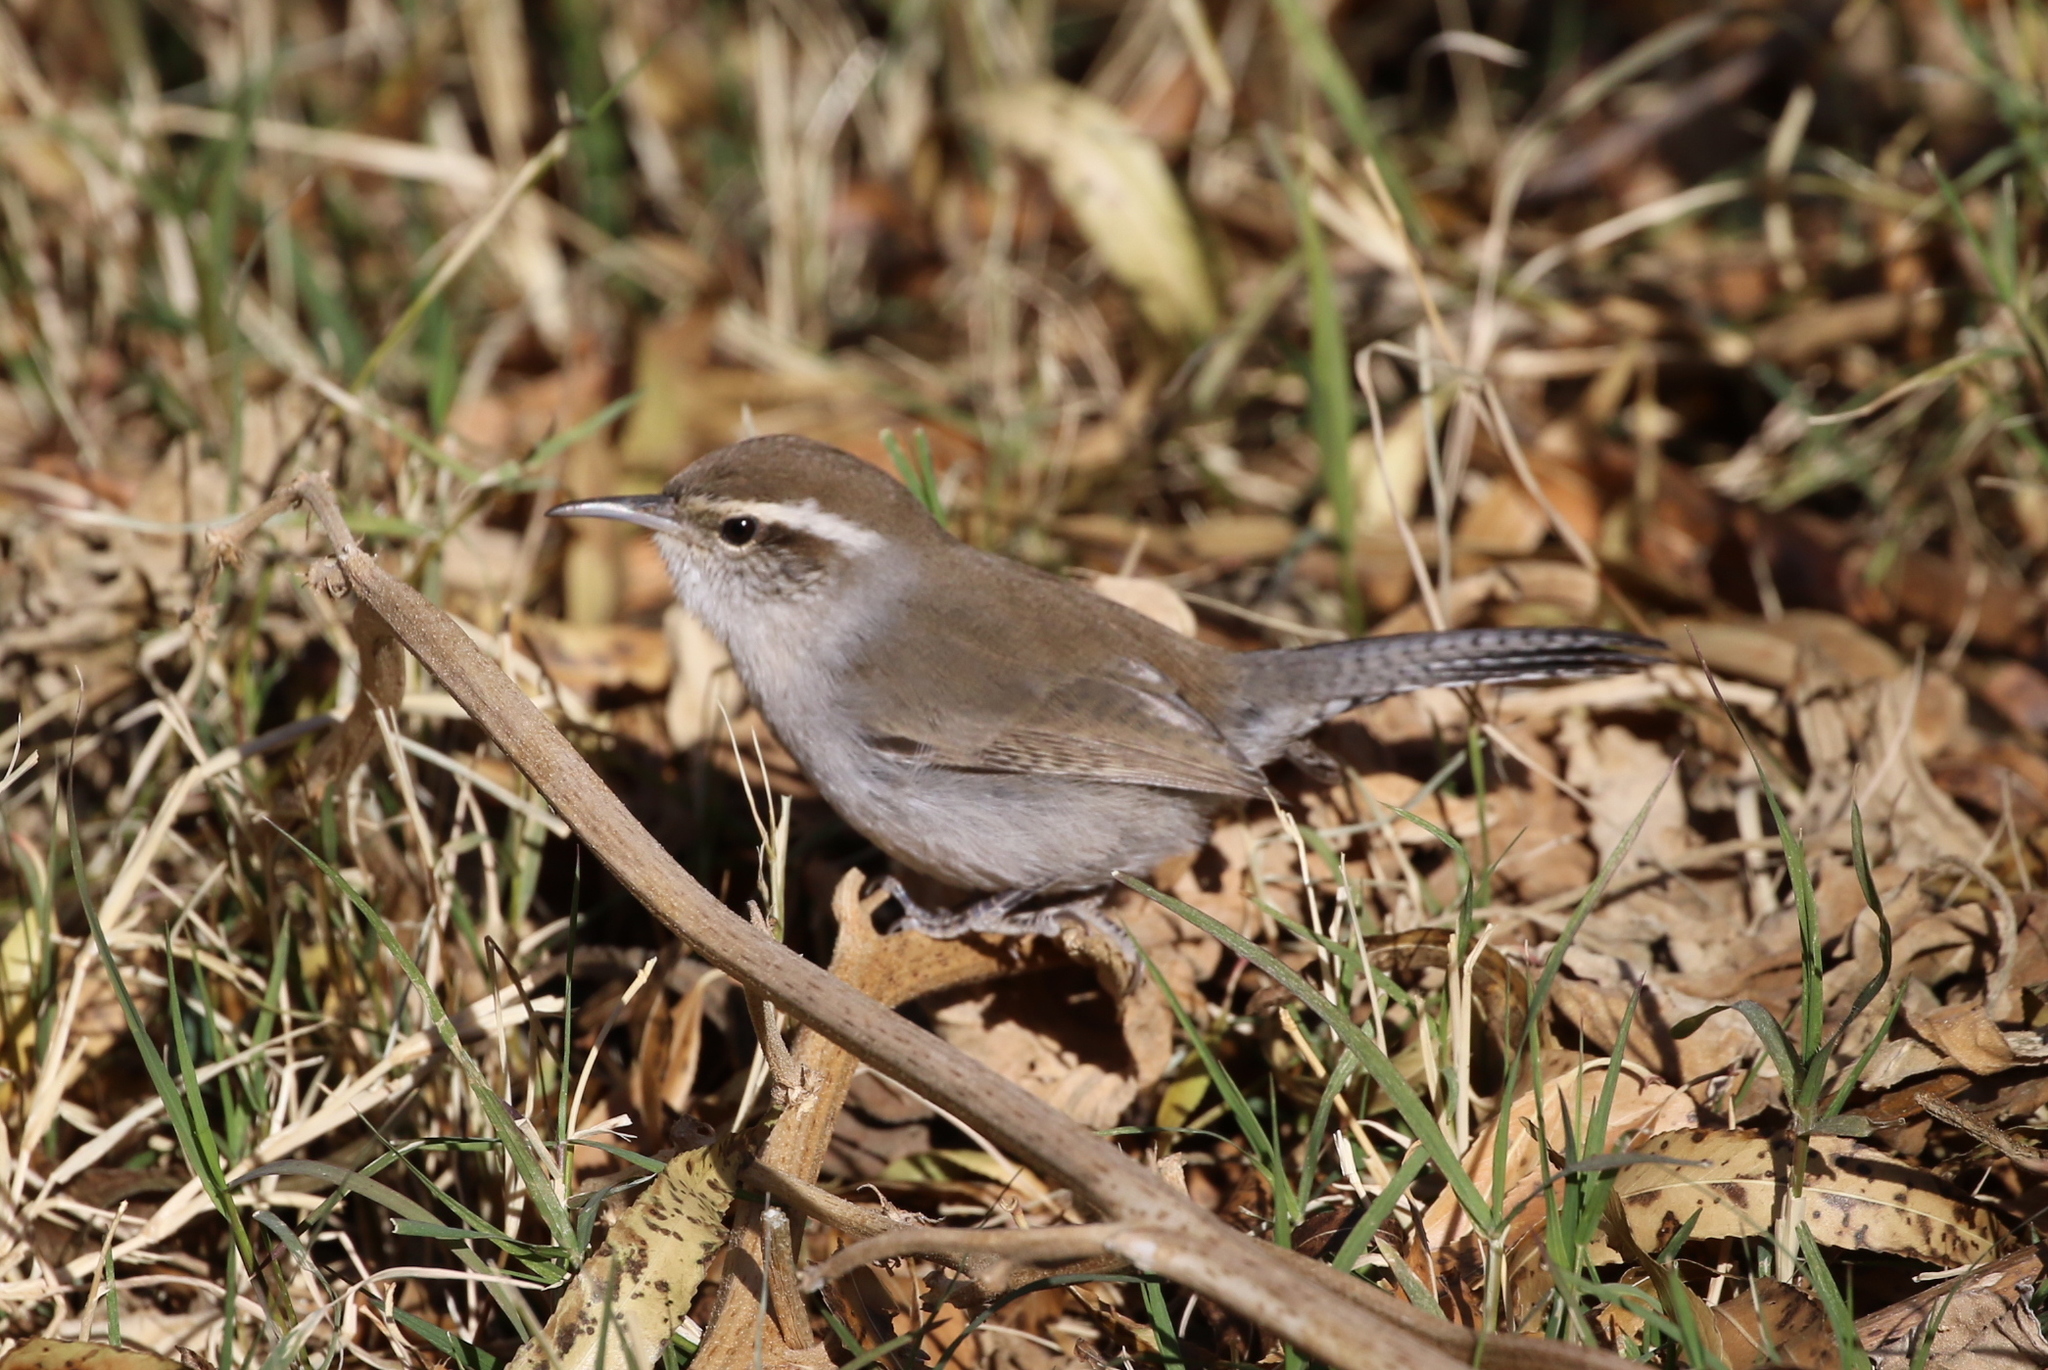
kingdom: Animalia
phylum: Chordata
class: Aves
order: Passeriformes
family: Troglodytidae
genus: Thryomanes
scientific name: Thryomanes bewickii
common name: Bewick's wren
